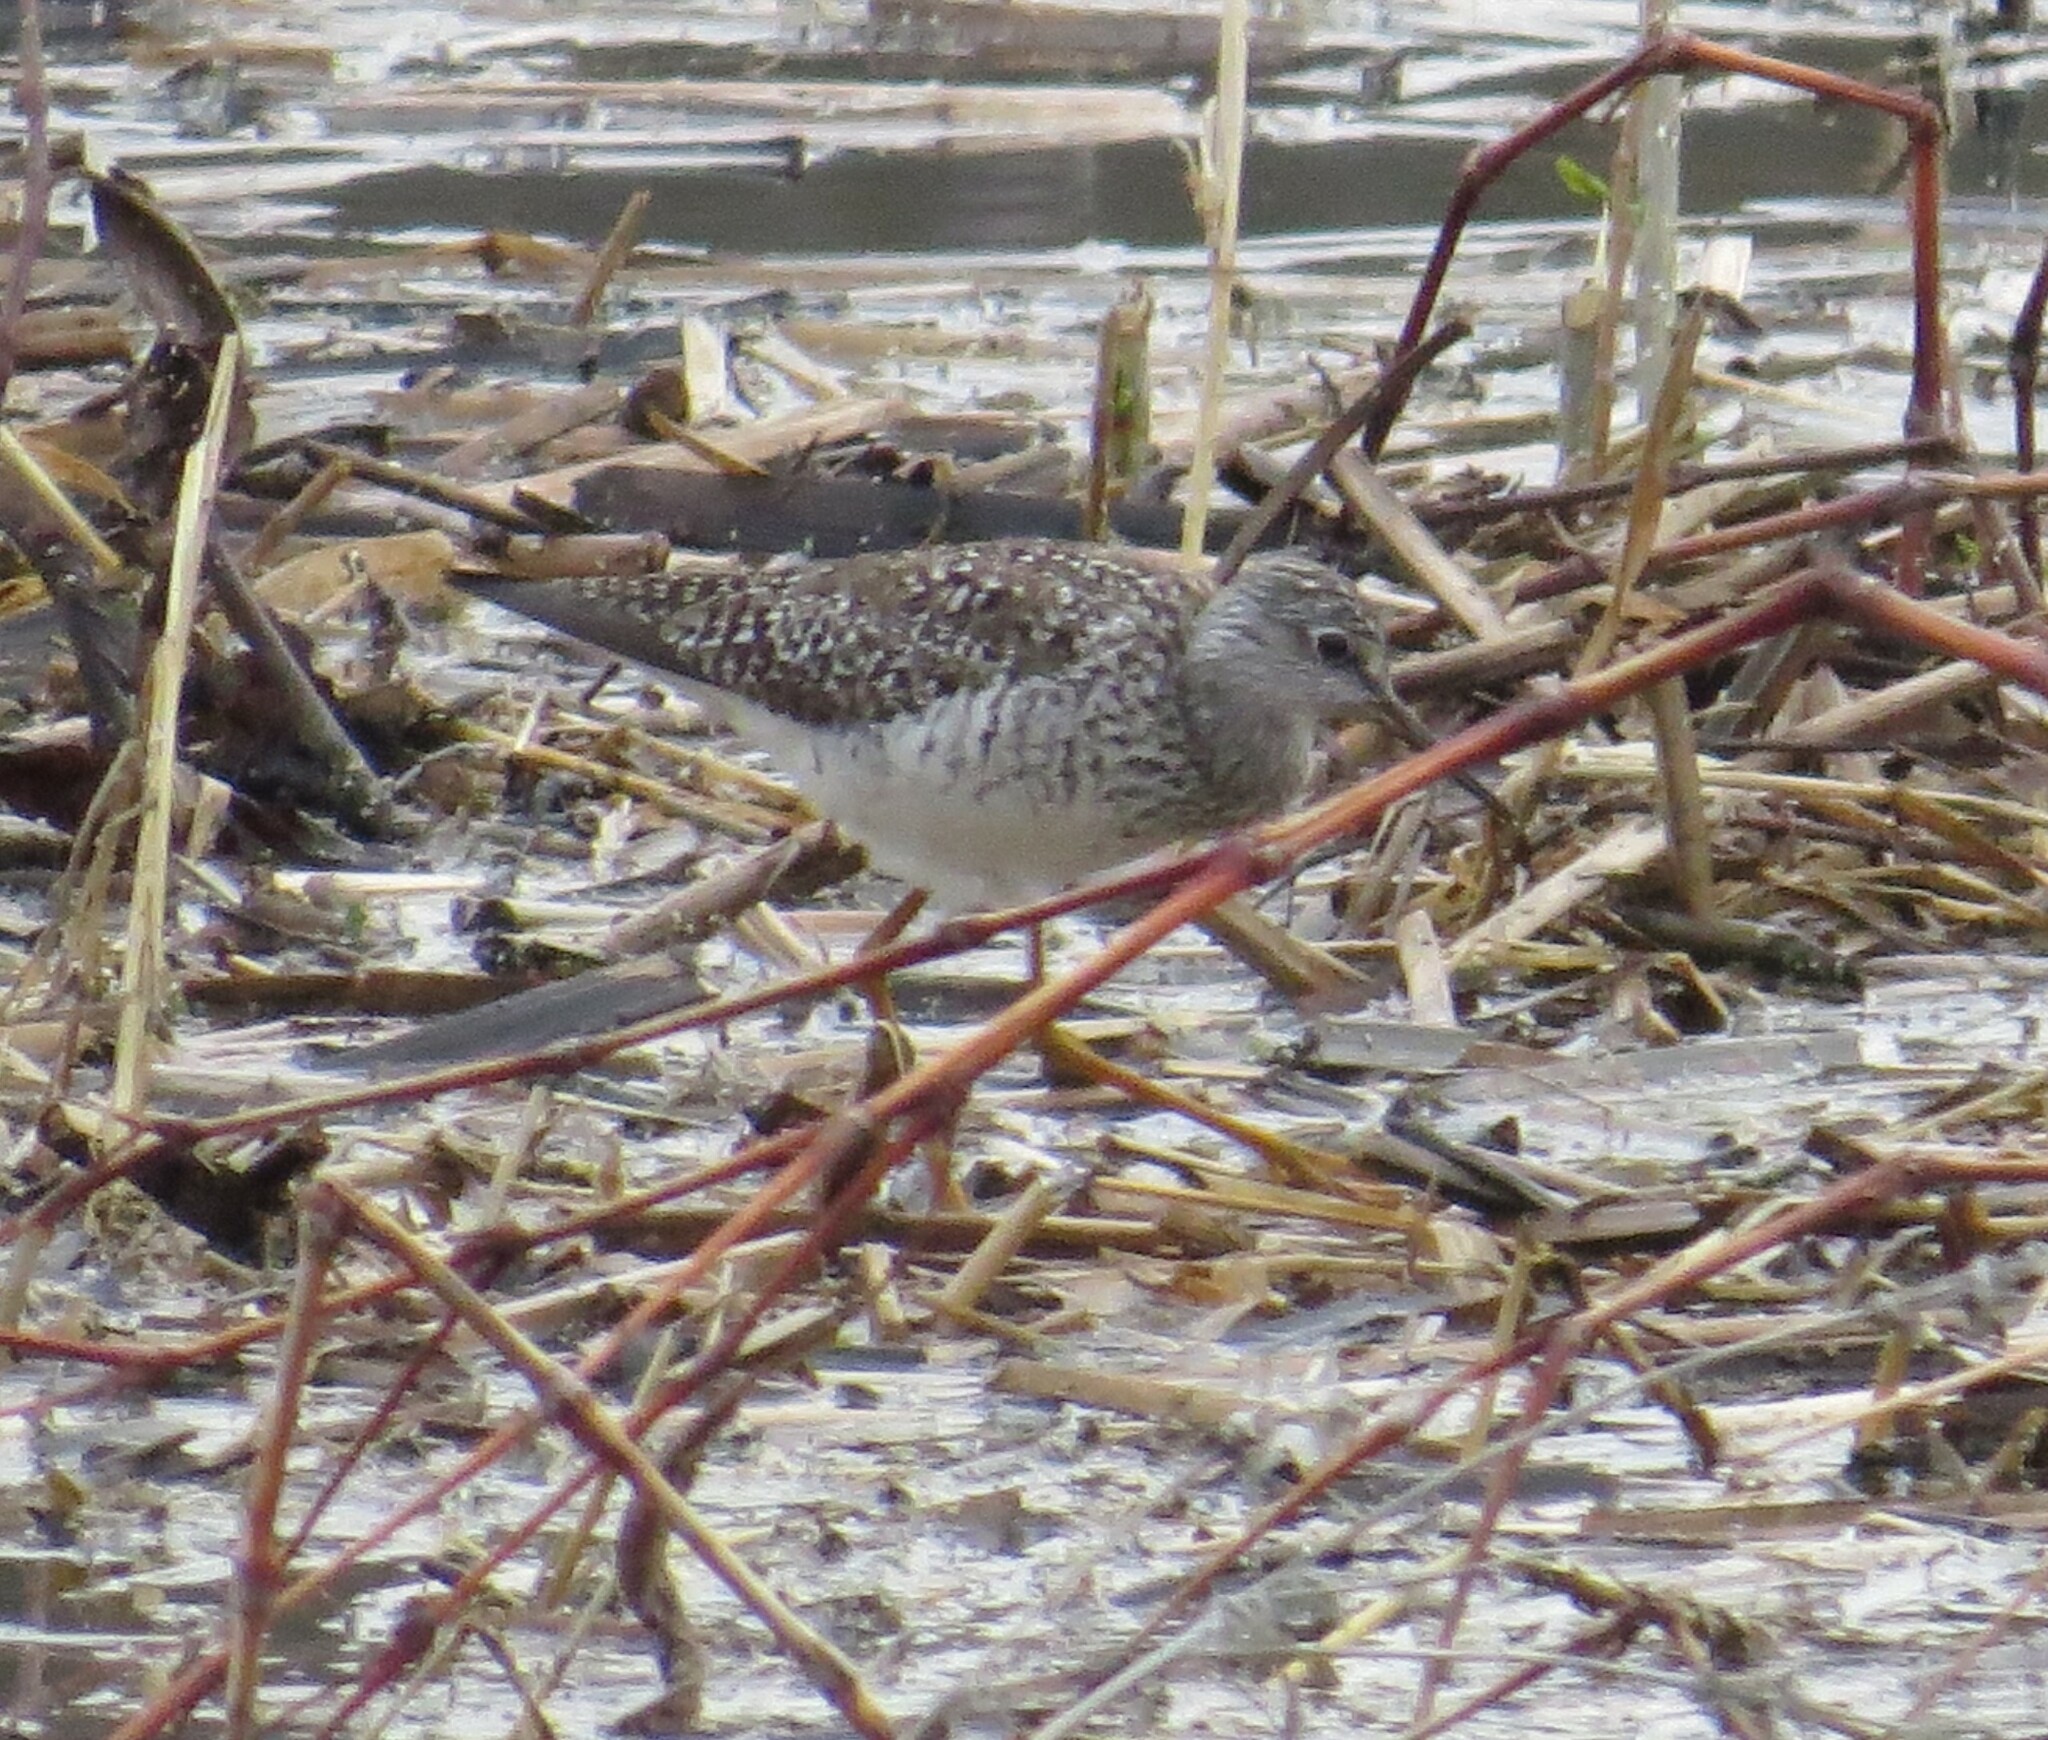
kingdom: Animalia
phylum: Chordata
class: Aves
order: Charadriiformes
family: Scolopacidae
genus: Tringa
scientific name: Tringa flavipes
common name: Lesser yellowlegs
